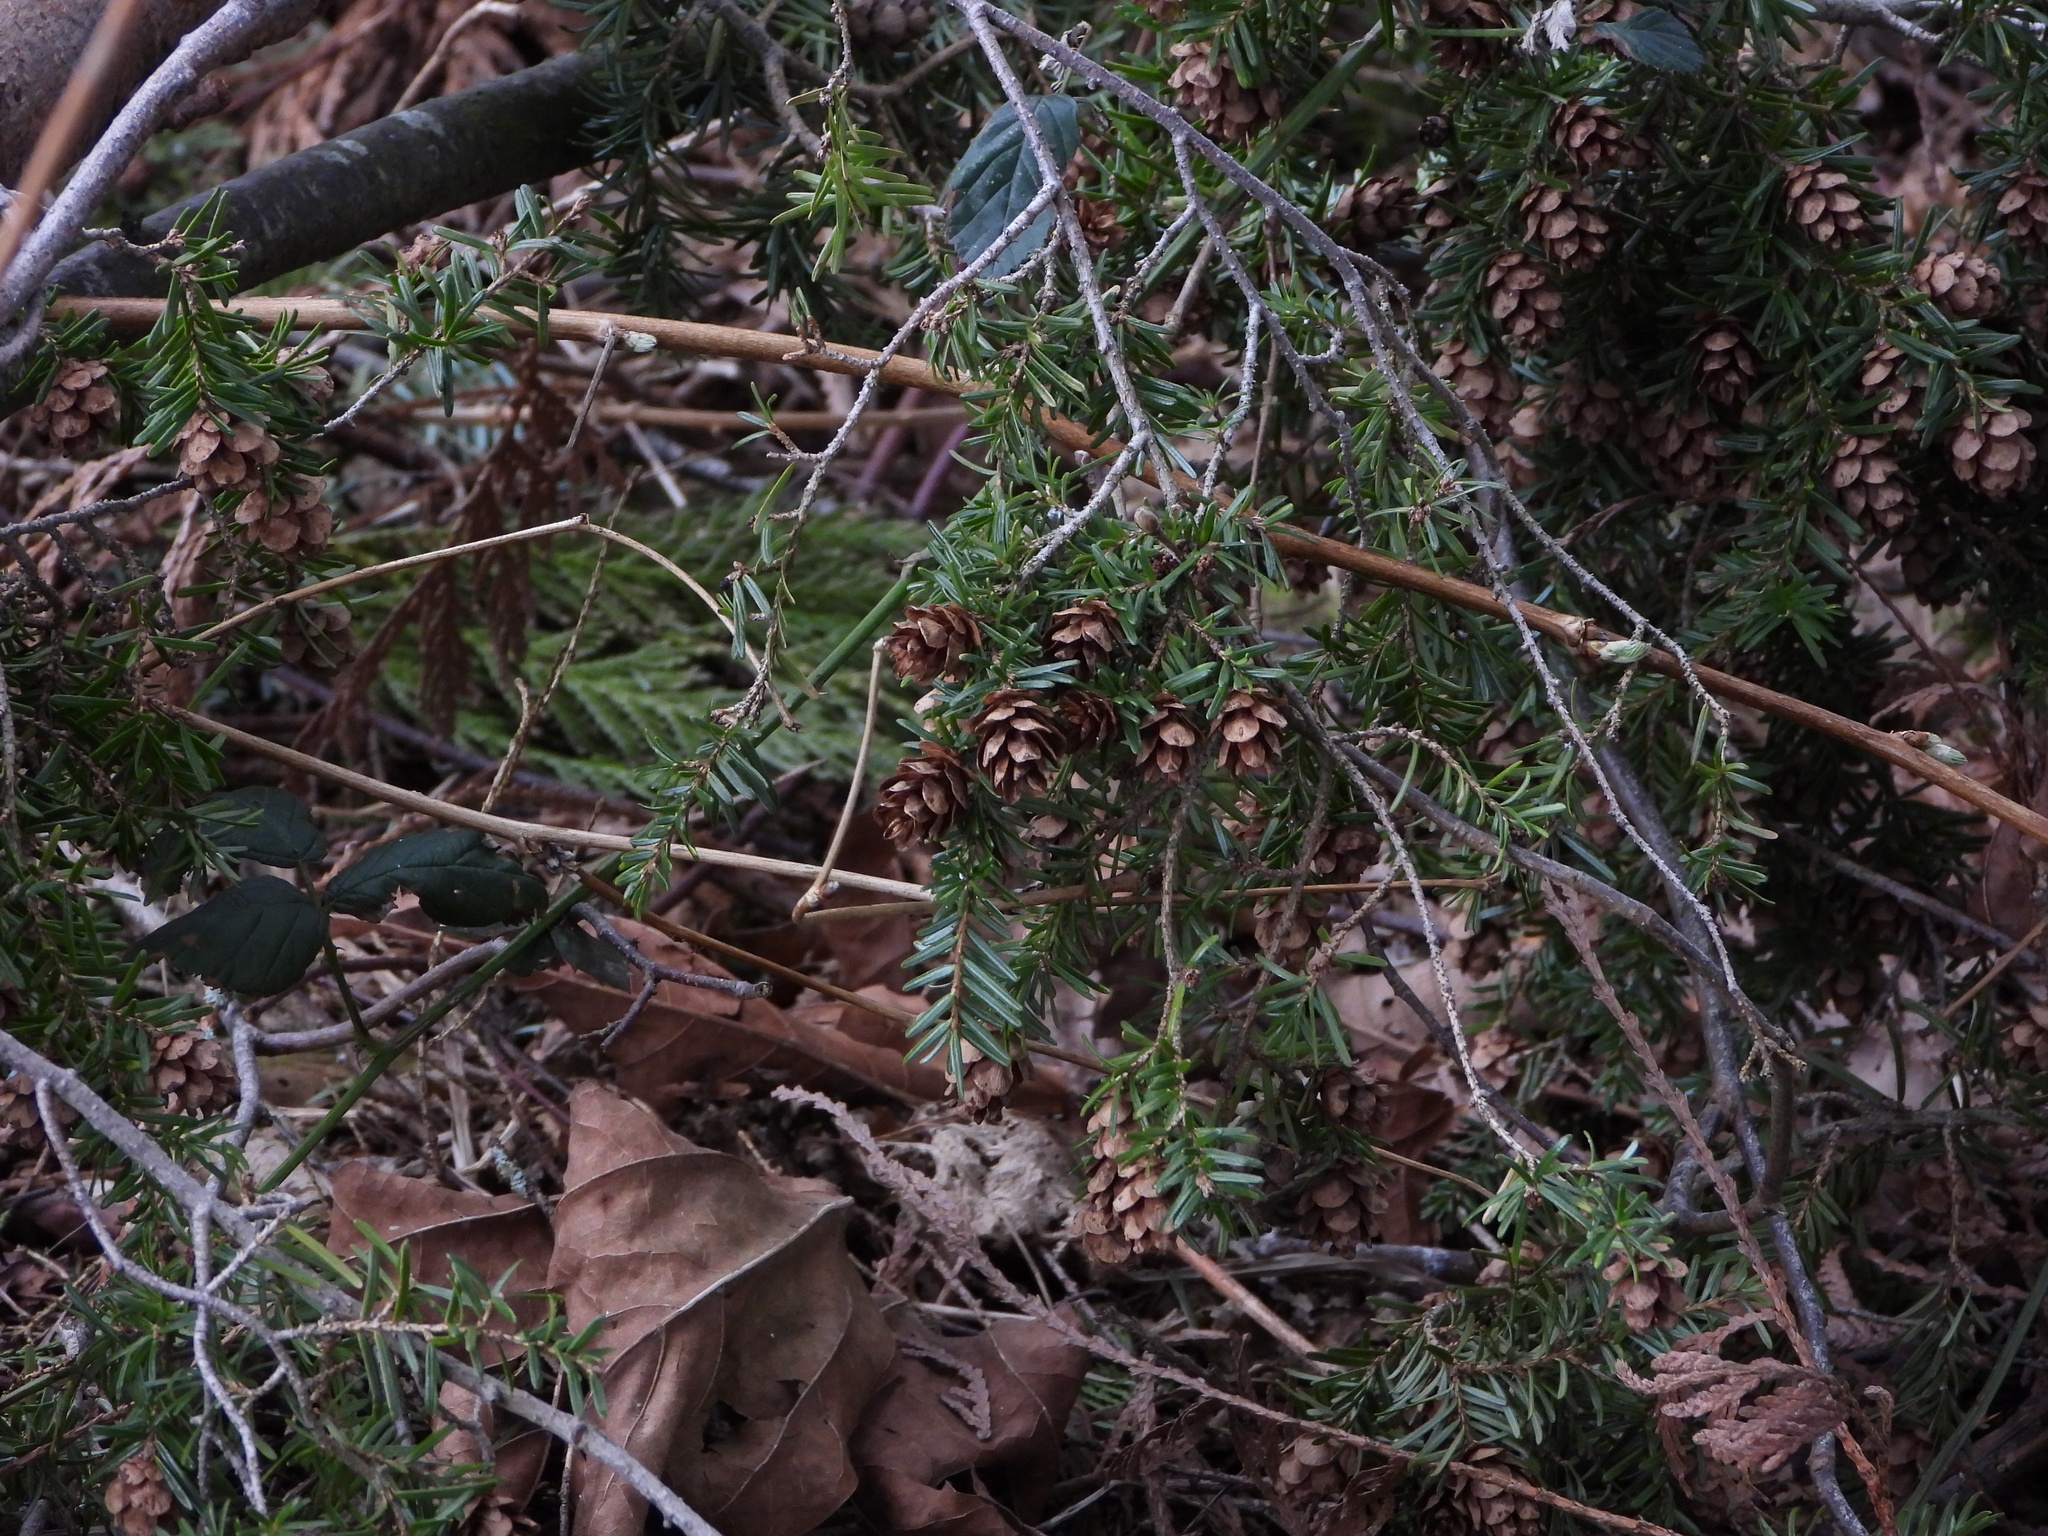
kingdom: Plantae
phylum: Tracheophyta
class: Pinopsida
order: Pinales
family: Pinaceae
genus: Tsuga
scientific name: Tsuga heterophylla
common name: Western hemlock
